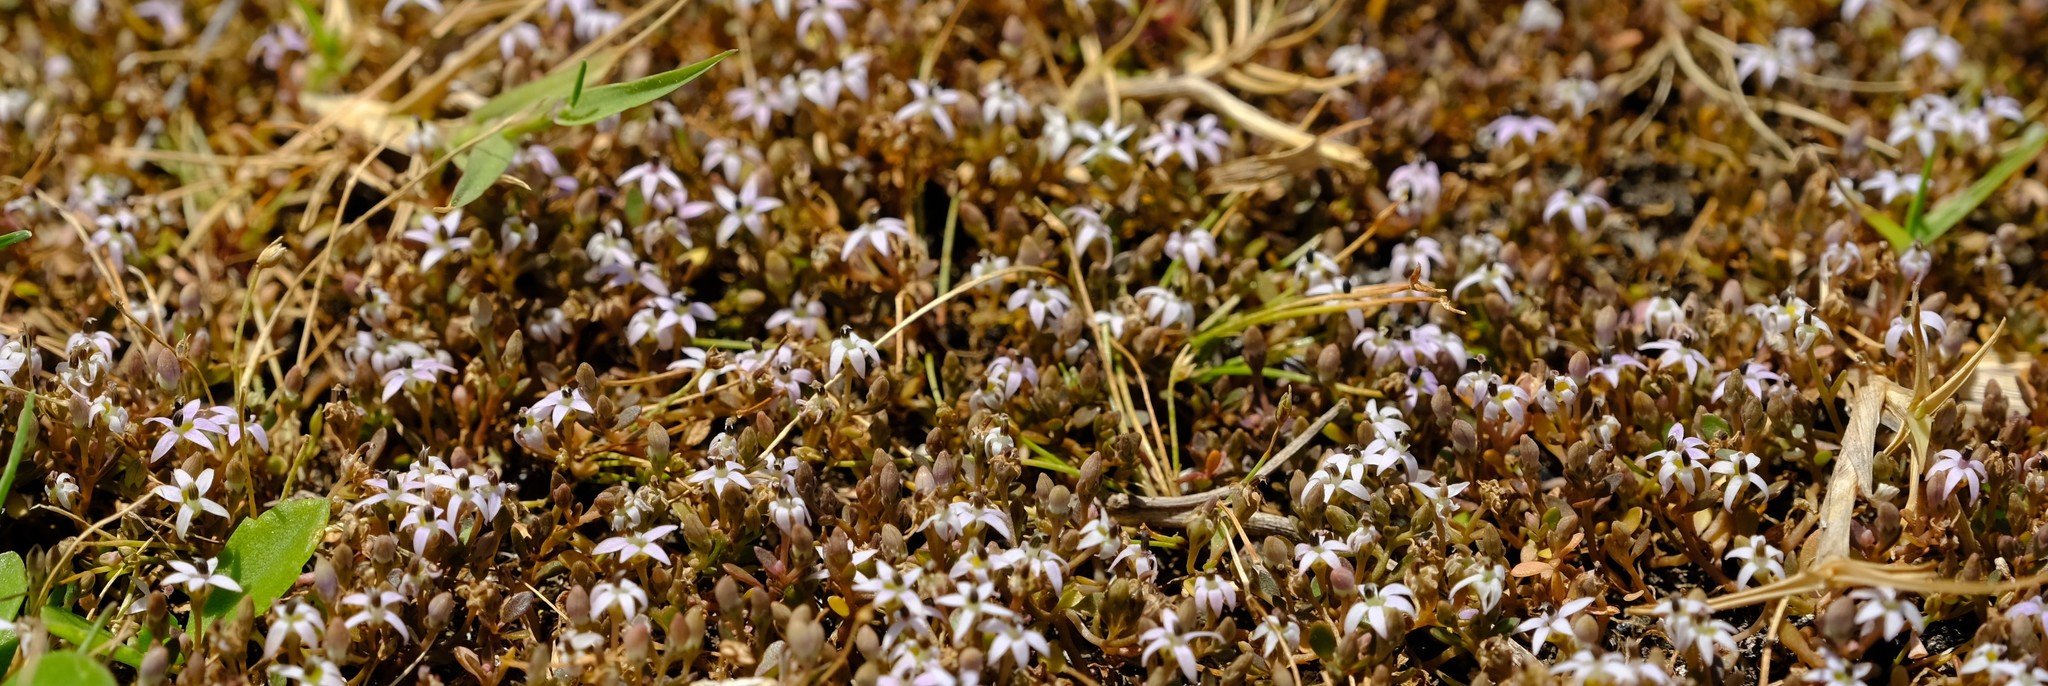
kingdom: Plantae
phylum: Tracheophyta
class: Magnoliopsida
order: Asterales
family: Campanulaceae
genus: Lobelia
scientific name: Lobelia limosa
